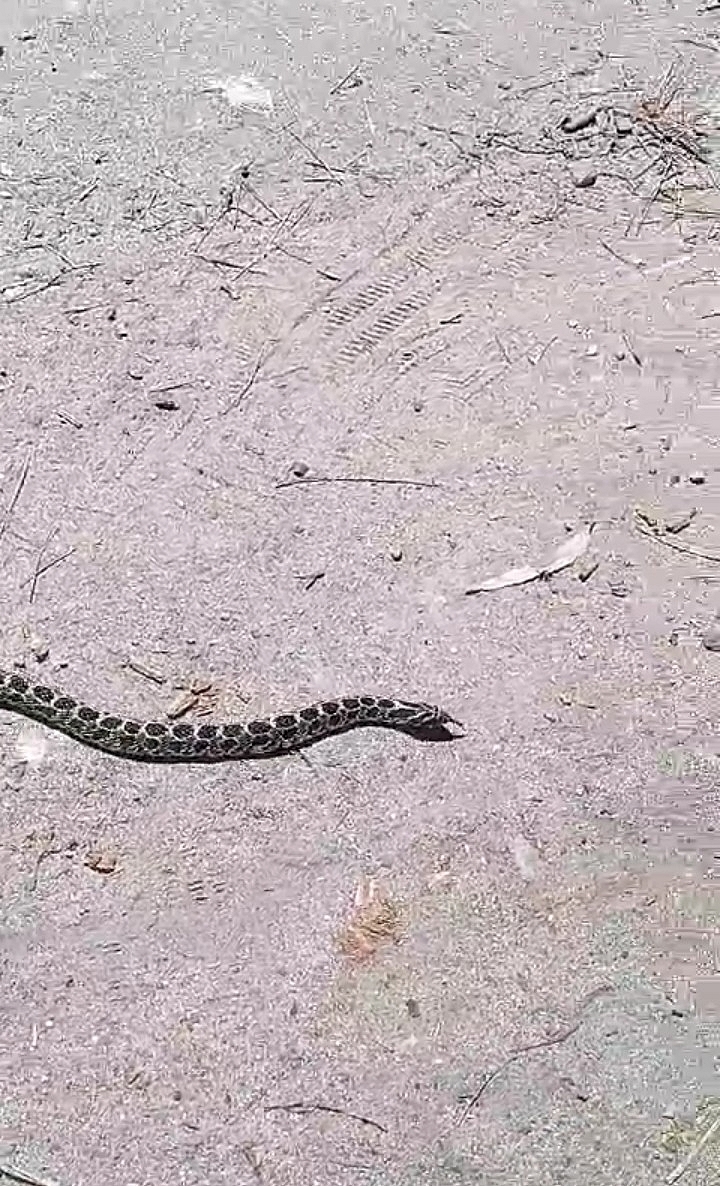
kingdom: Animalia
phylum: Chordata
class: Squamata
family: Colubridae
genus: Xenodon
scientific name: Xenodon dorbignyi
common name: South american hognose snake
